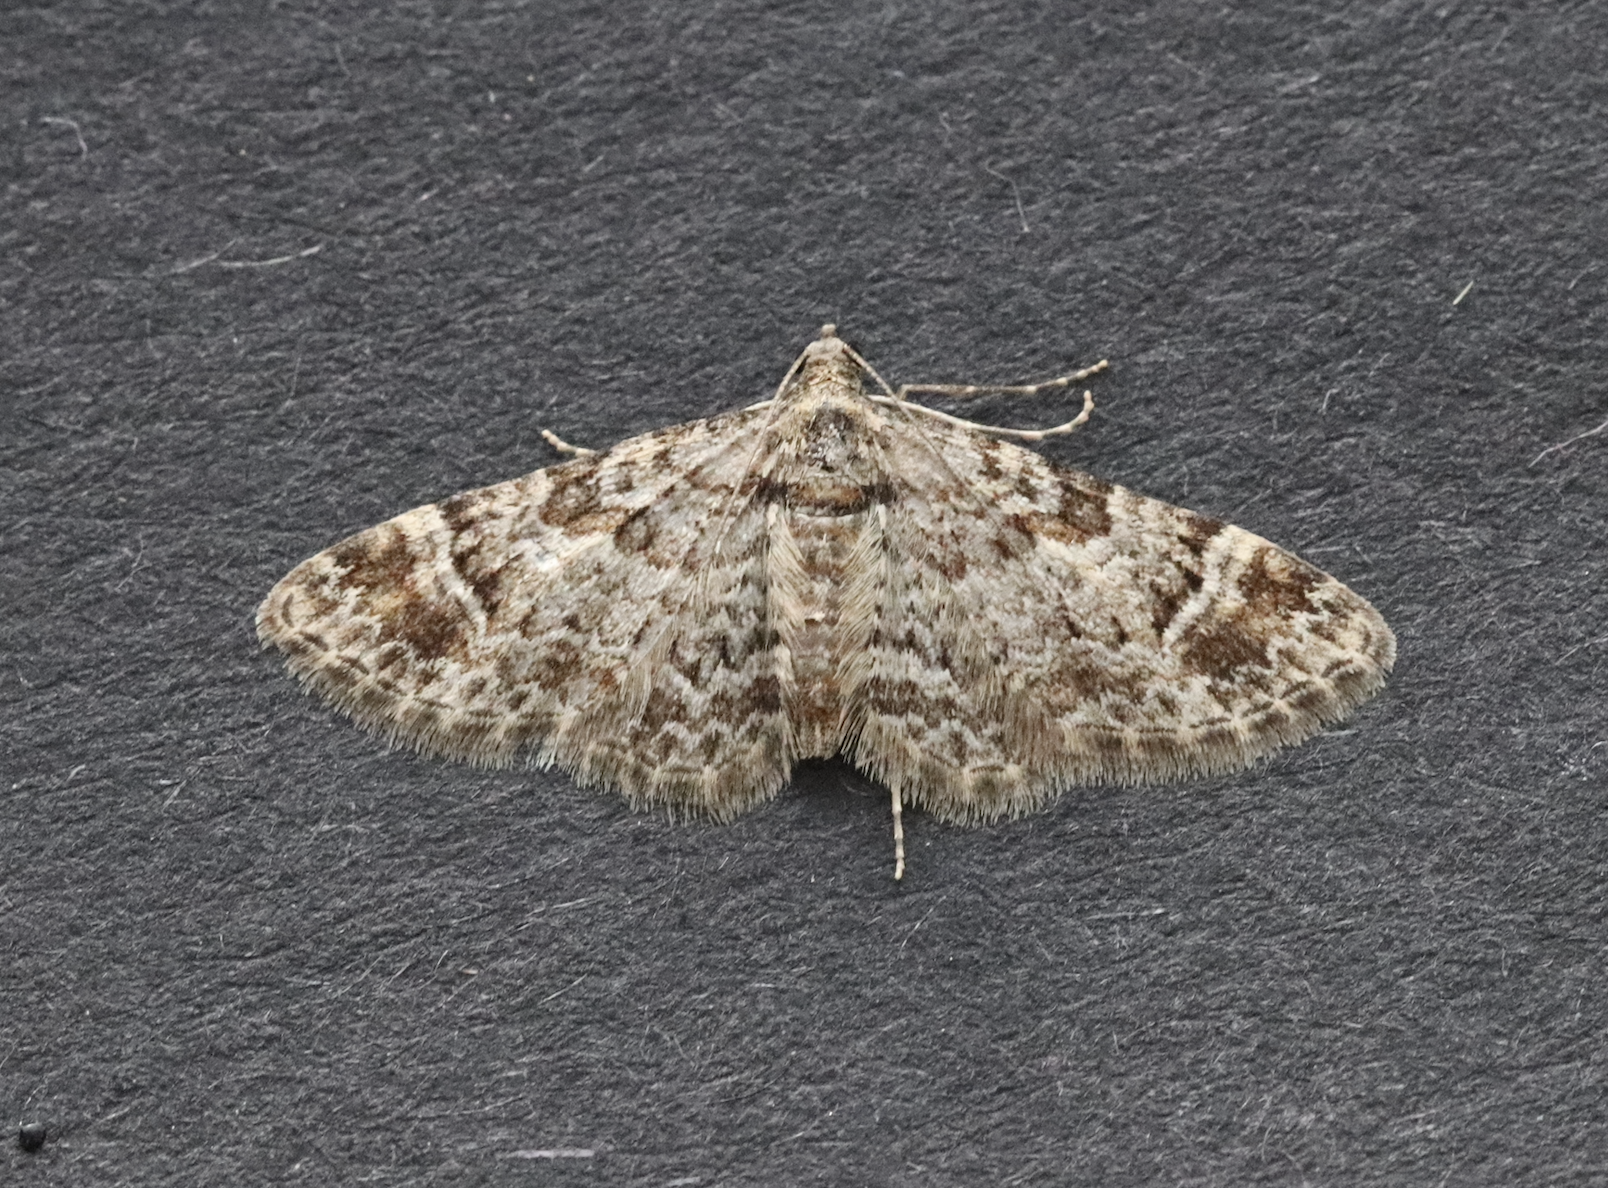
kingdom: Animalia
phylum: Arthropoda
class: Insecta
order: Lepidoptera
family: Geometridae
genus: Gymnoscelis
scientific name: Gymnoscelis rufifasciata
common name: Double-striped pug
